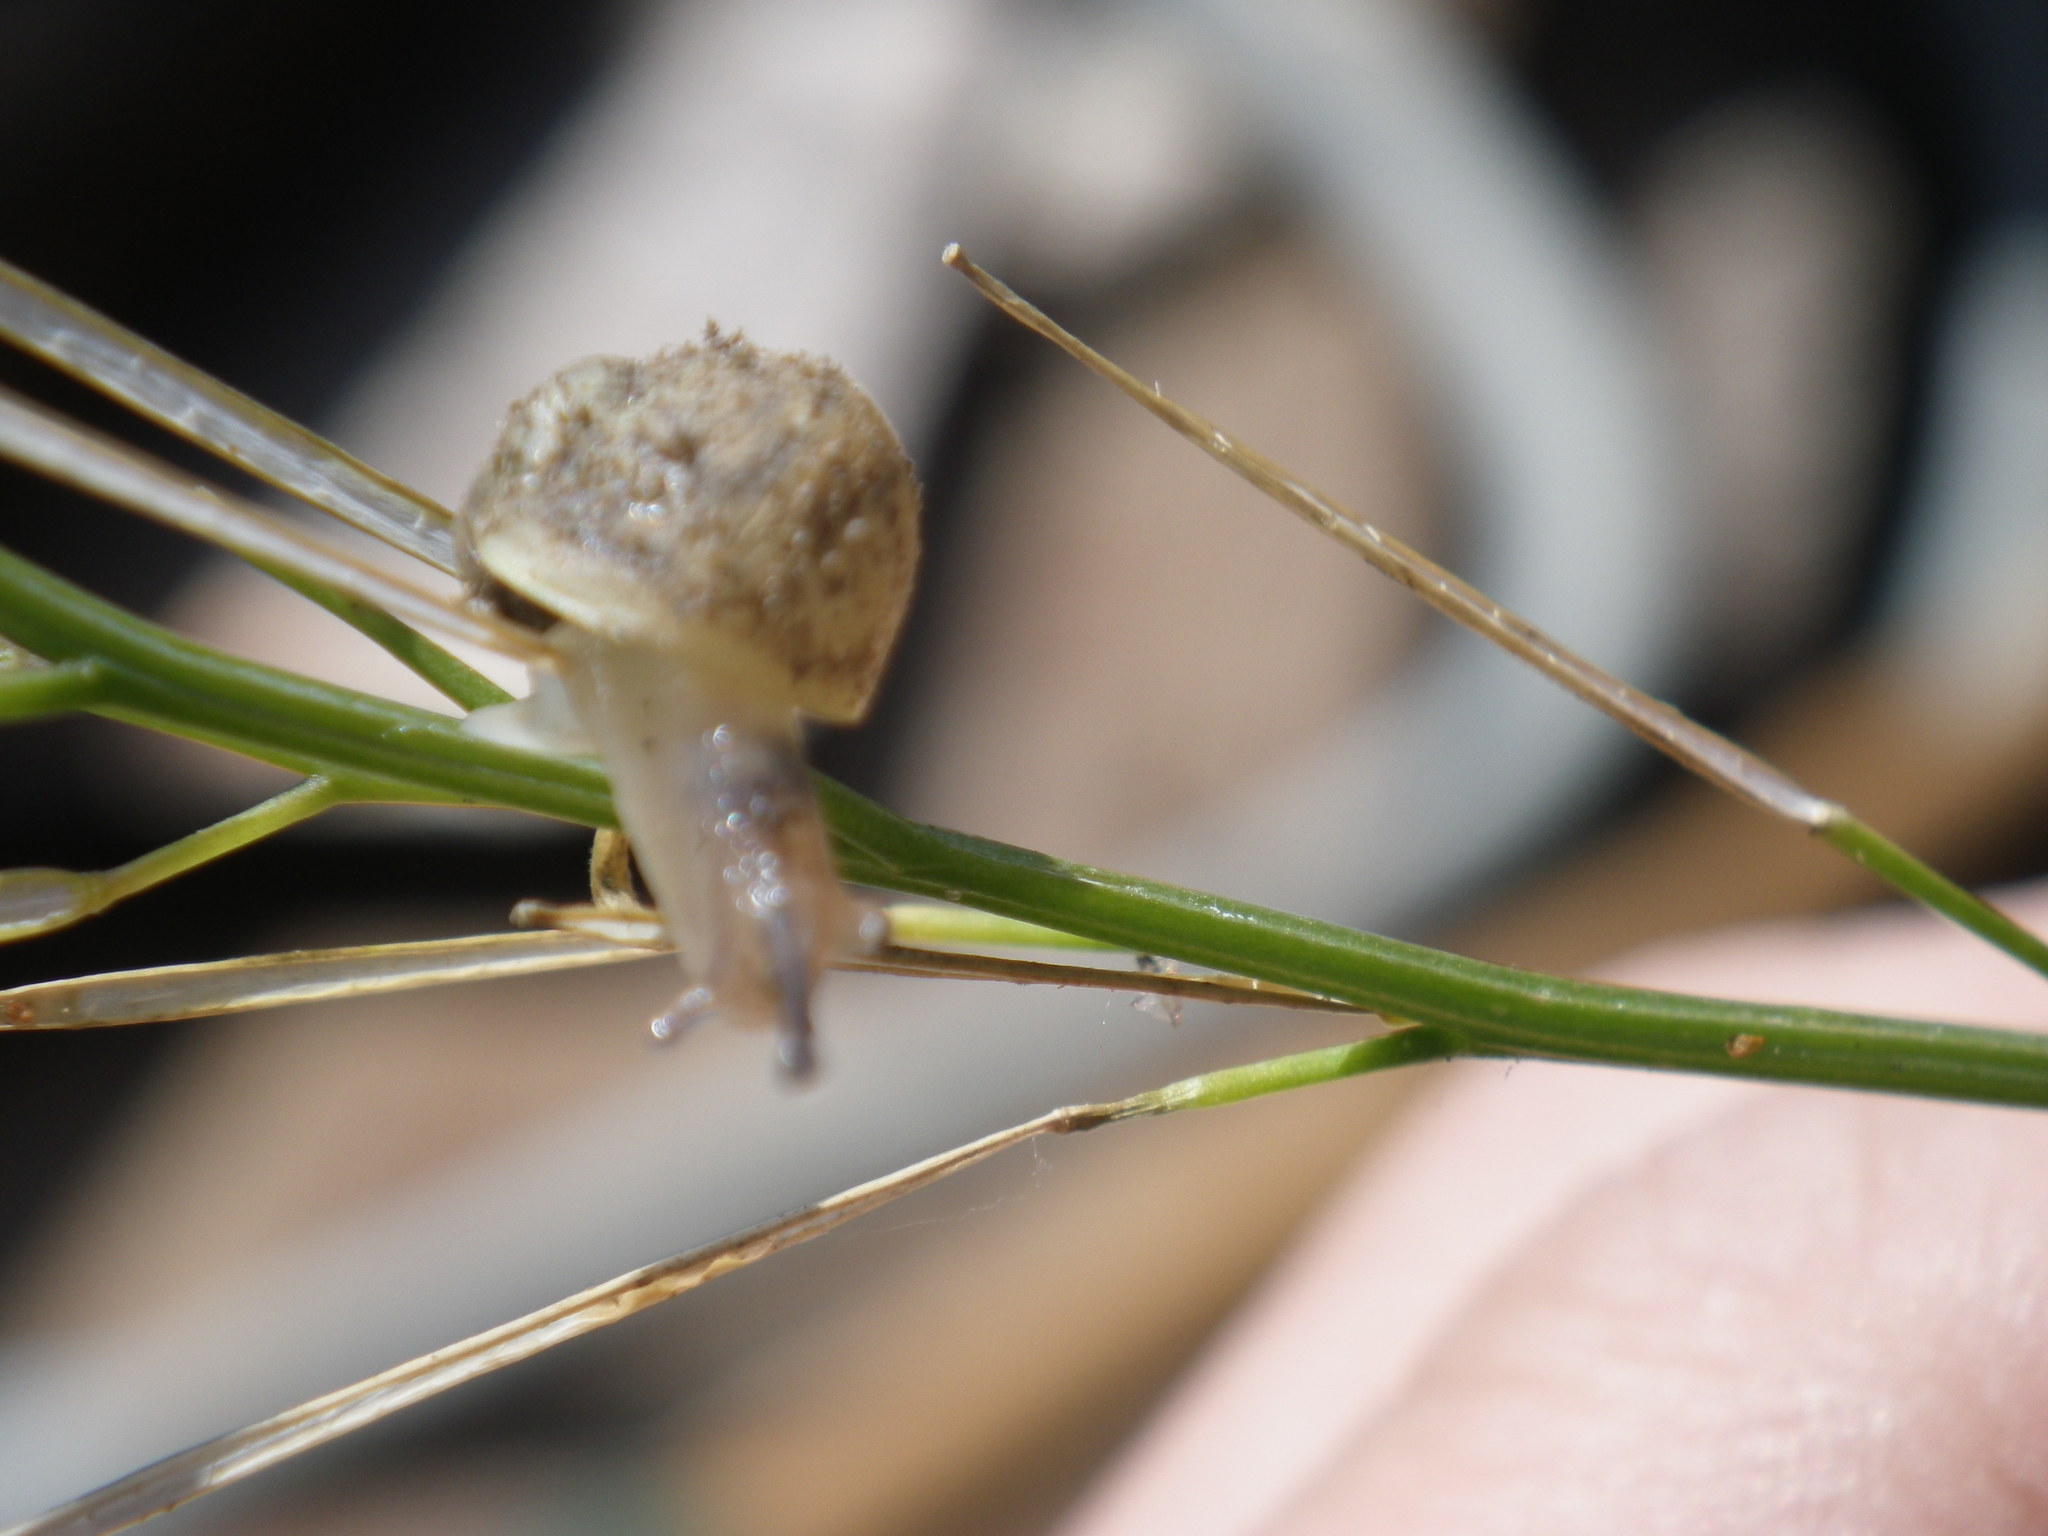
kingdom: Animalia
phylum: Mollusca
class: Gastropoda
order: Stylommatophora
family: Helicidae
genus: Cornu
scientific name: Cornu aspersum
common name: Brown garden snail
